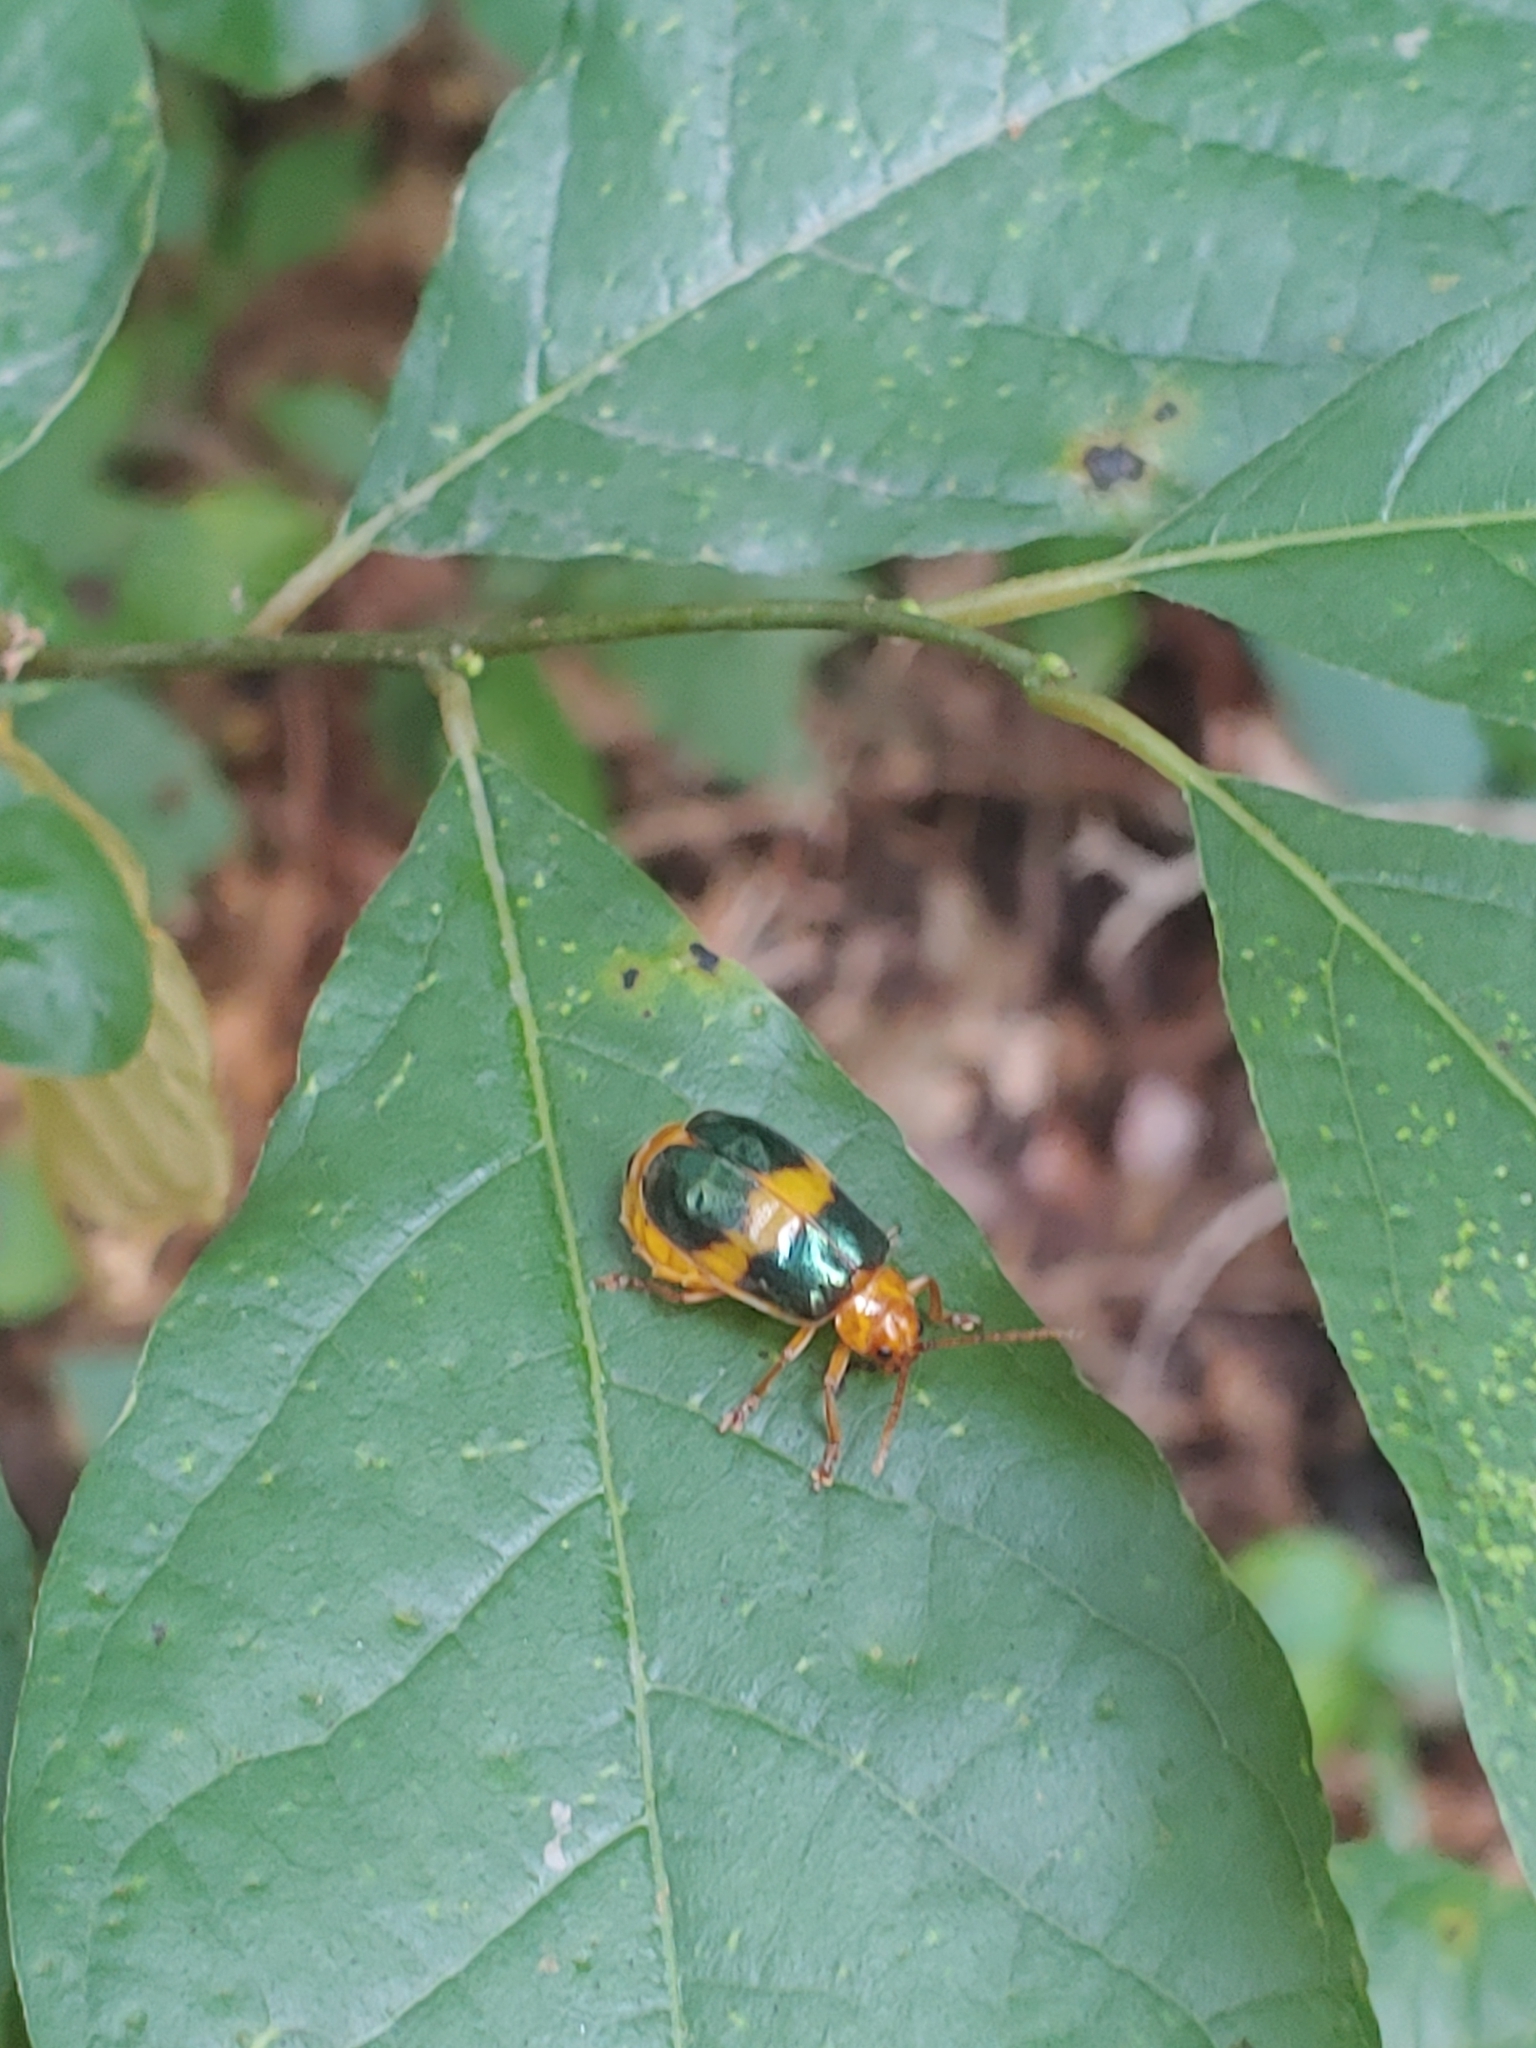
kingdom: Animalia
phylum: Arthropoda
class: Insecta
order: Coleoptera
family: Chrysomelidae
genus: Monocesta
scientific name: Monocesta coryli
